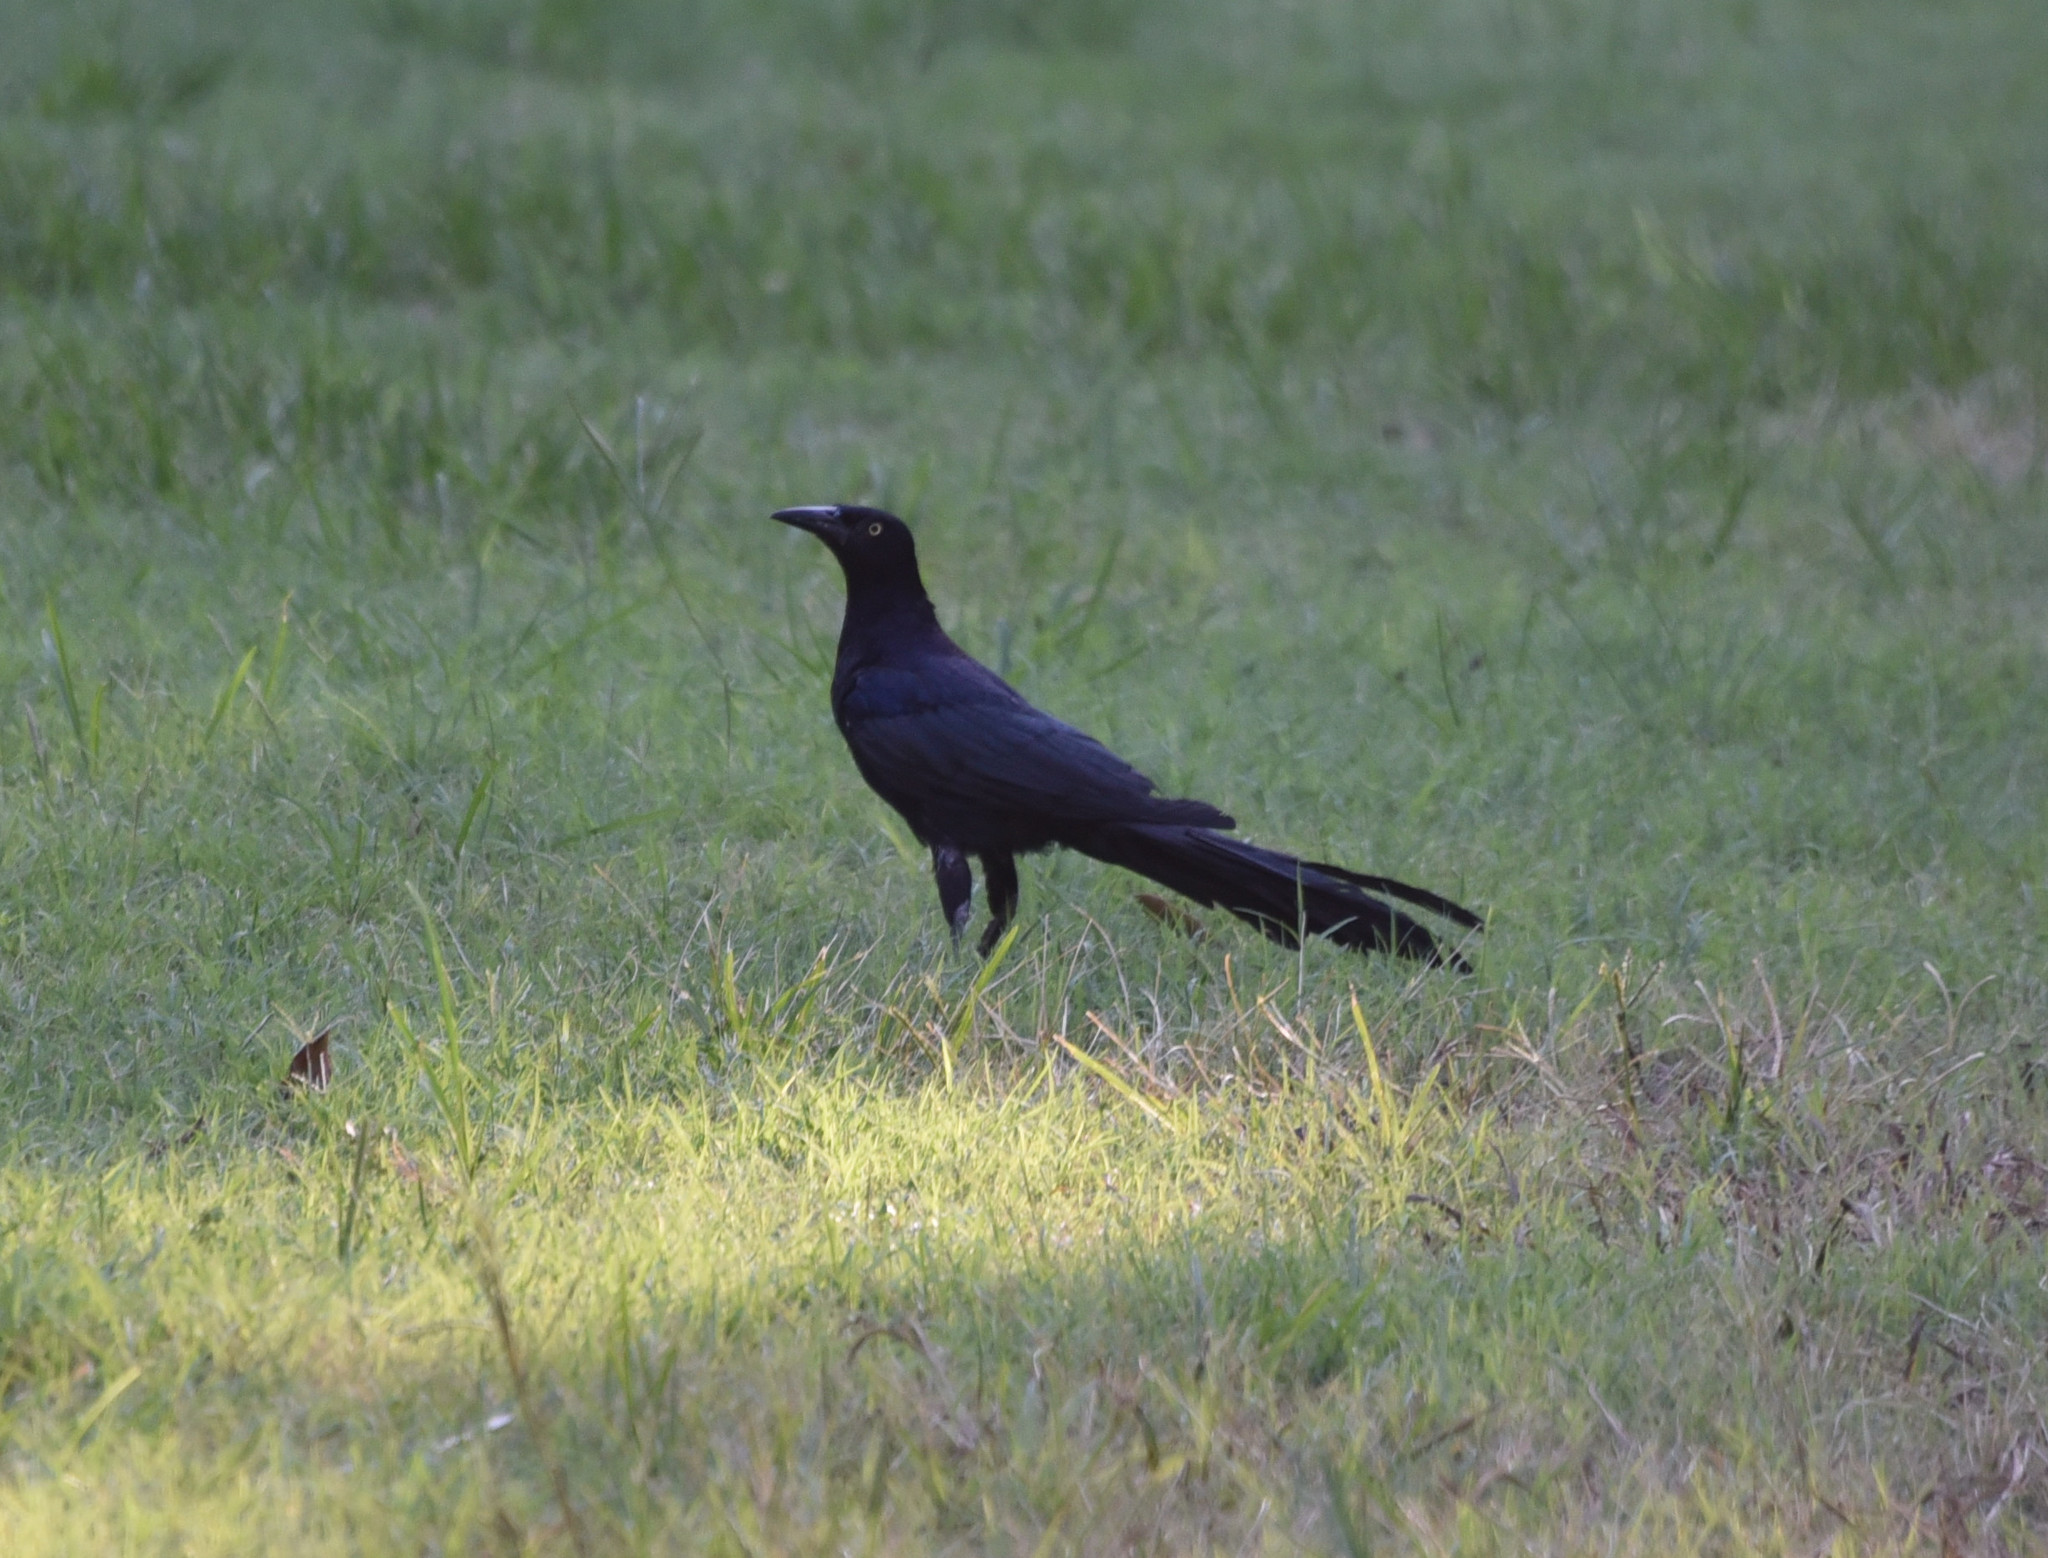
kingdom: Animalia
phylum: Chordata
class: Aves
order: Passeriformes
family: Icteridae
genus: Quiscalus
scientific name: Quiscalus mexicanus
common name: Great-tailed grackle
